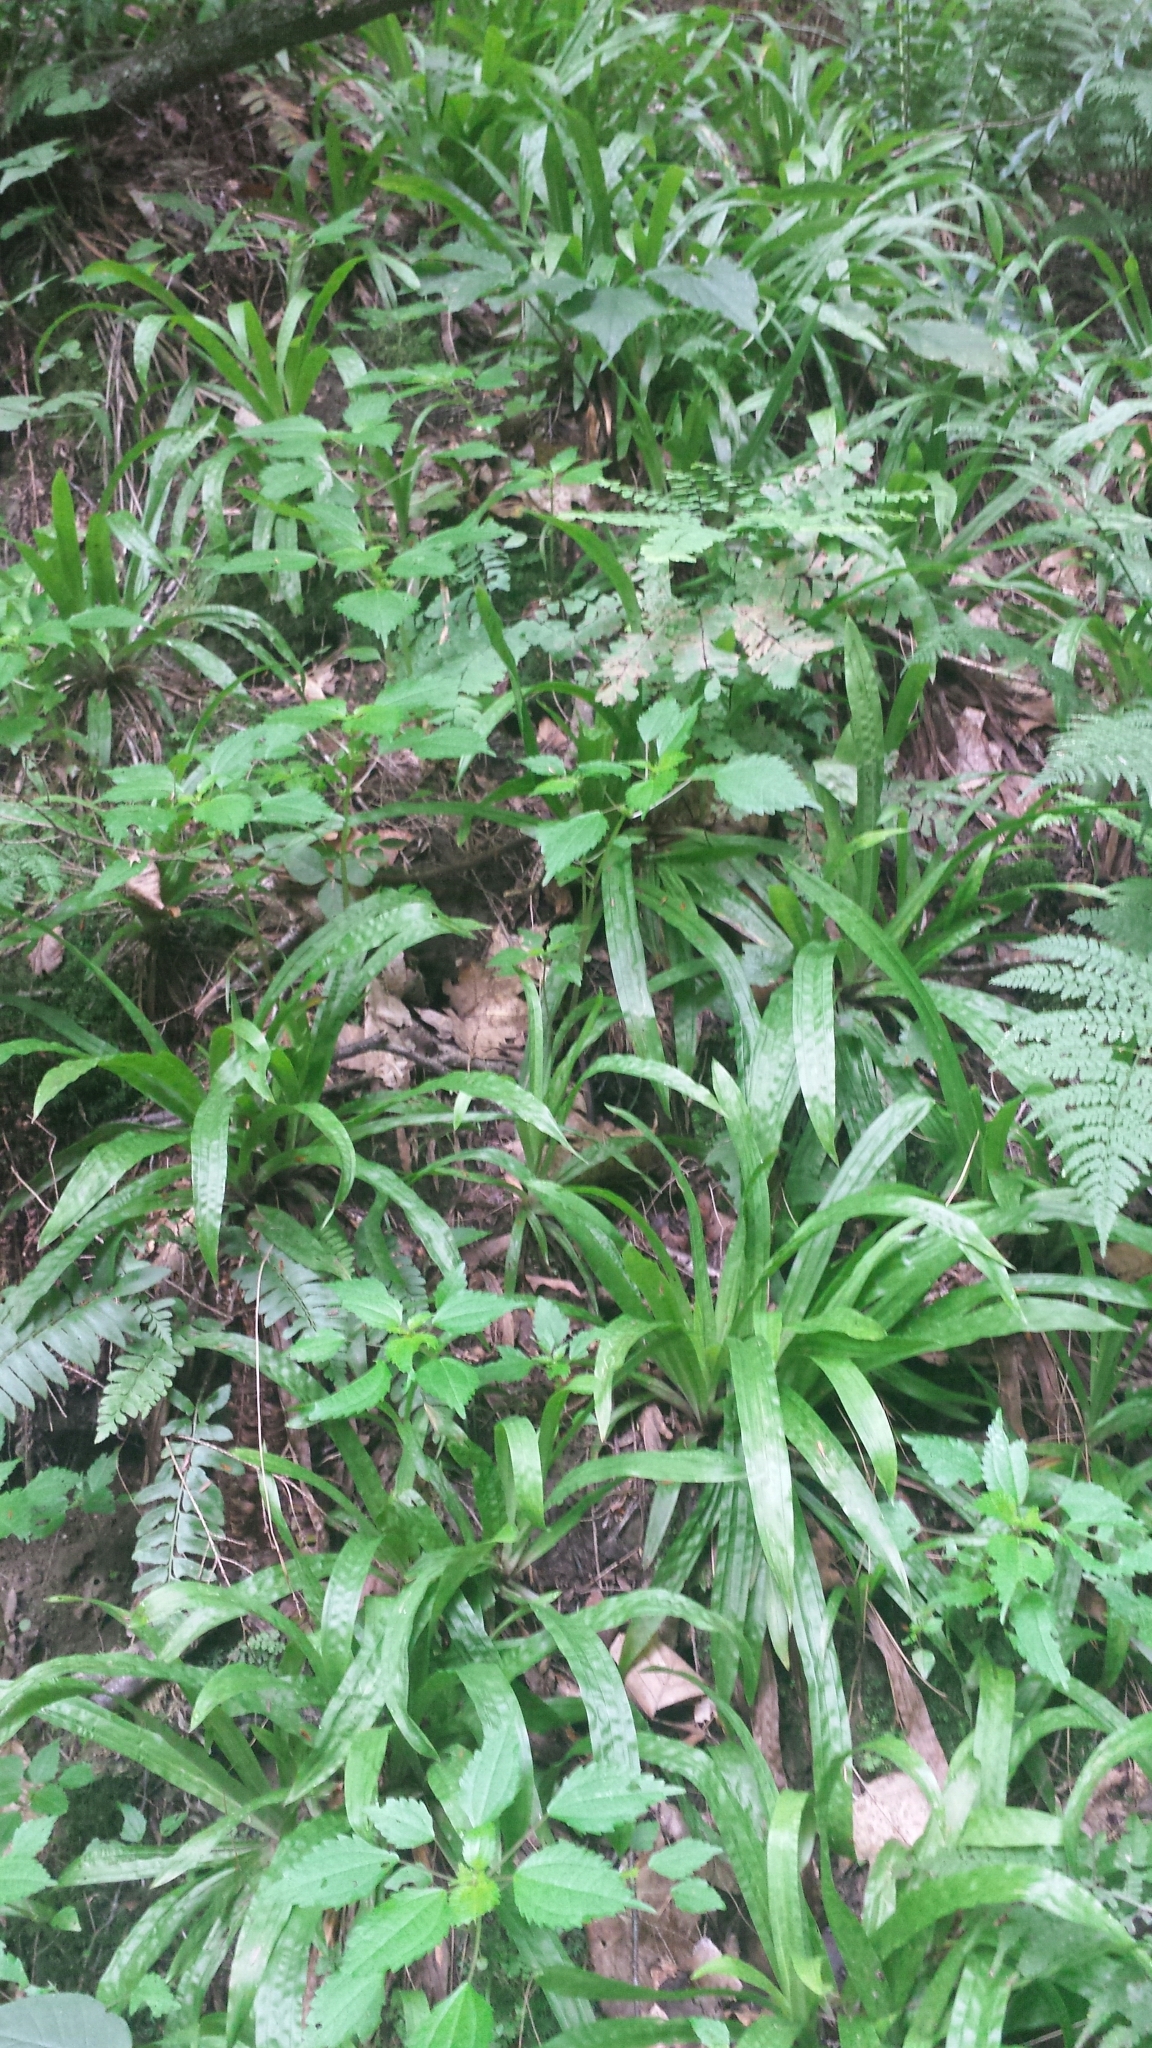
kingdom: Plantae
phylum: Tracheophyta
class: Liliopsida
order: Poales
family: Cyperaceae
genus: Carex
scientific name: Carex plantaginea
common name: Plantain-leaved sedge
